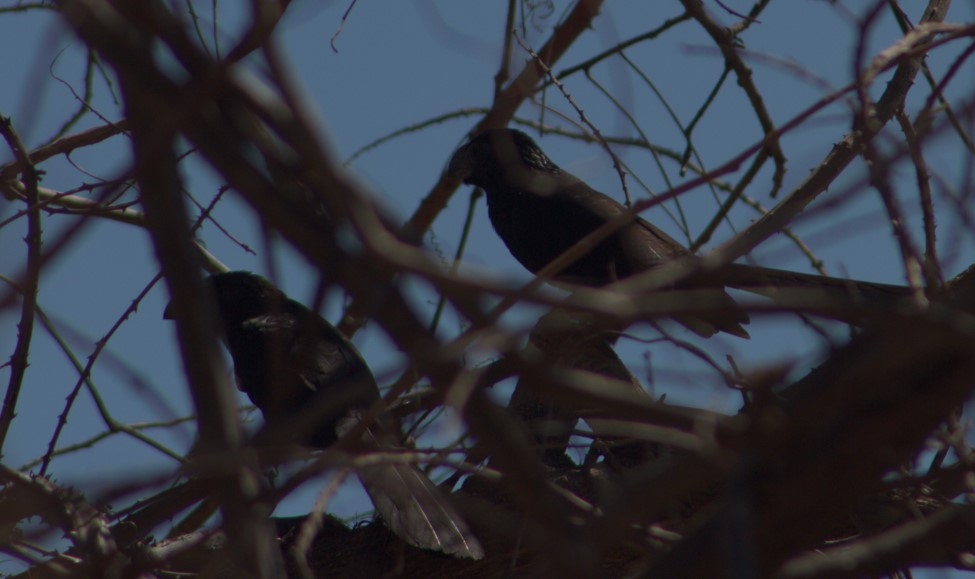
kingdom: Animalia
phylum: Chordata
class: Aves
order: Cuculiformes
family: Cuculidae
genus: Crotophaga
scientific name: Crotophaga sulcirostris
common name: Groove-billed ani
